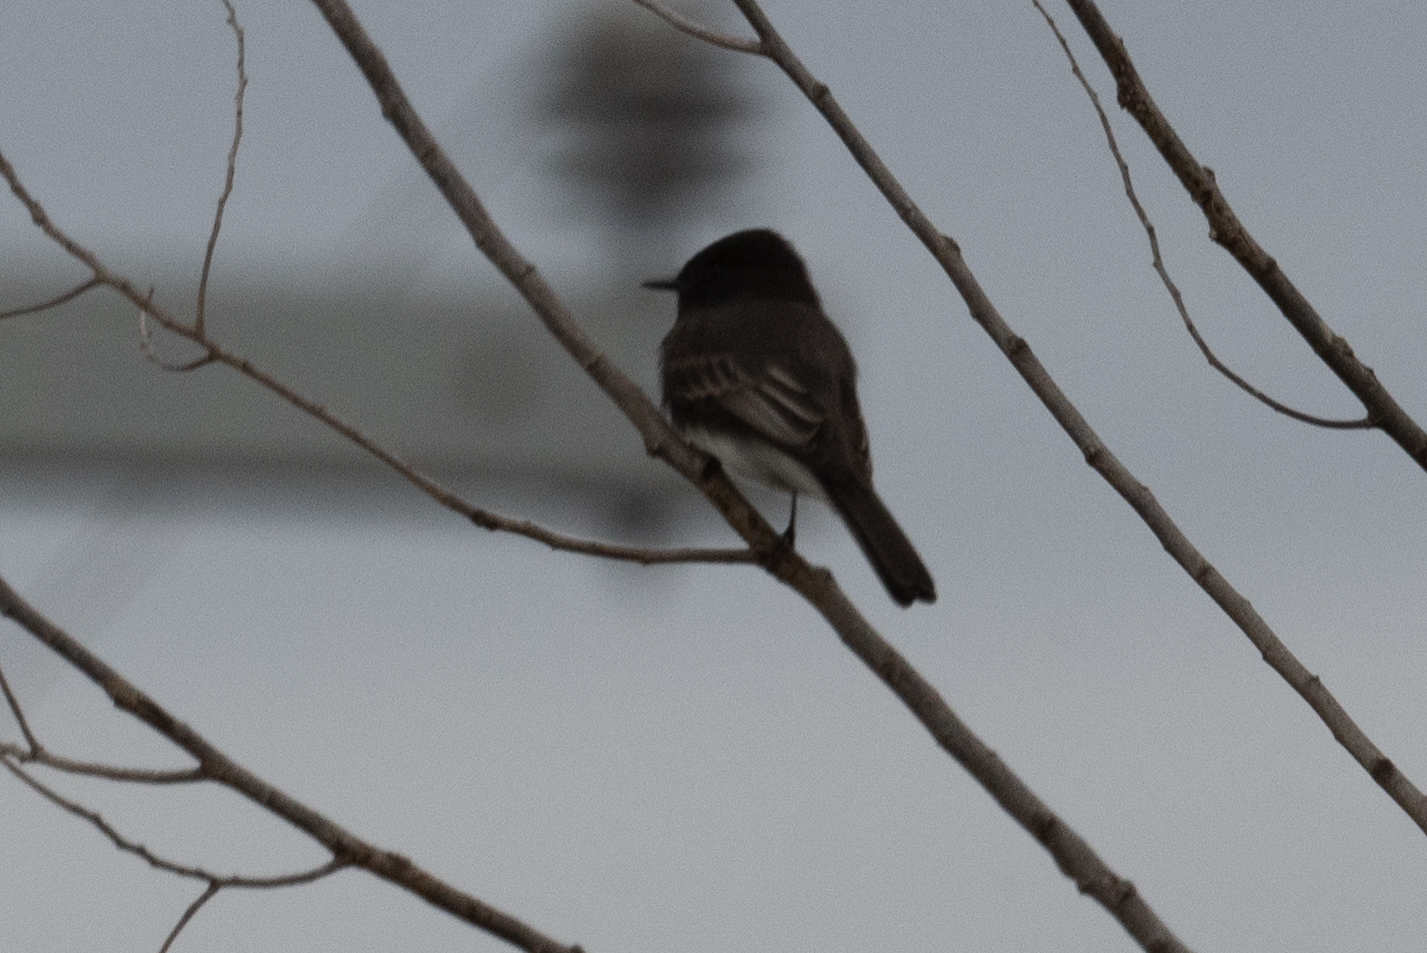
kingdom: Animalia
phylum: Chordata
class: Aves
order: Passeriformes
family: Tyrannidae
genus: Sayornis
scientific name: Sayornis nigricans
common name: Black phoebe
